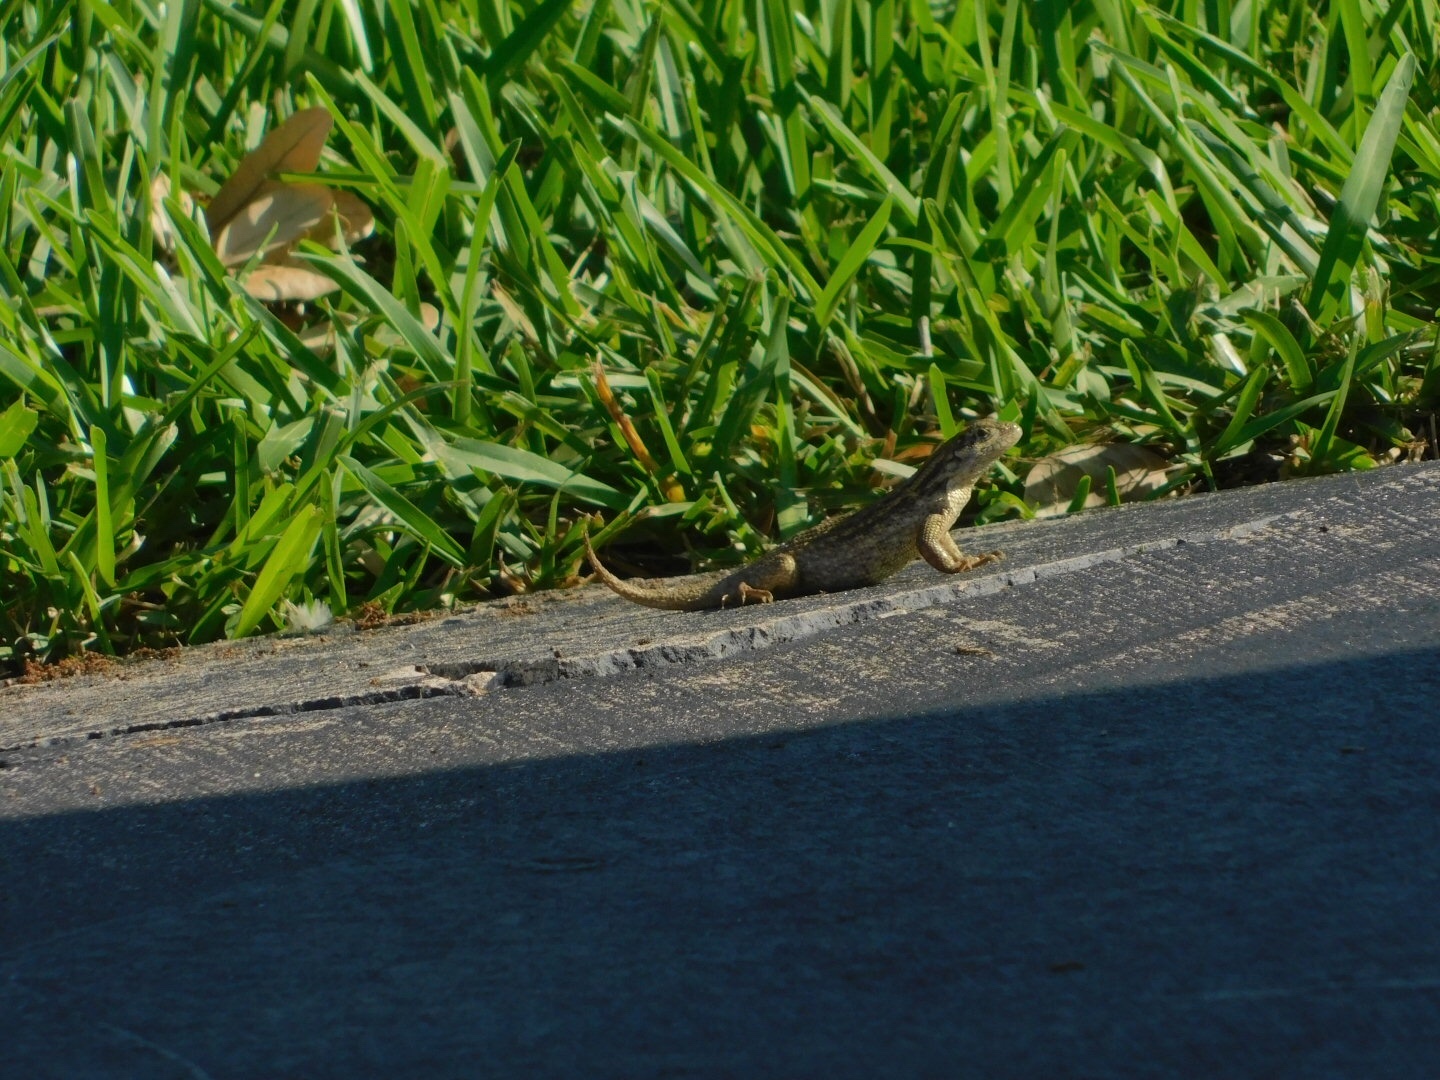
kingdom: Animalia
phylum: Chordata
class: Squamata
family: Leiocephalidae
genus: Leiocephalus
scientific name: Leiocephalus carinatus
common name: Northern curly-tailed lizard
